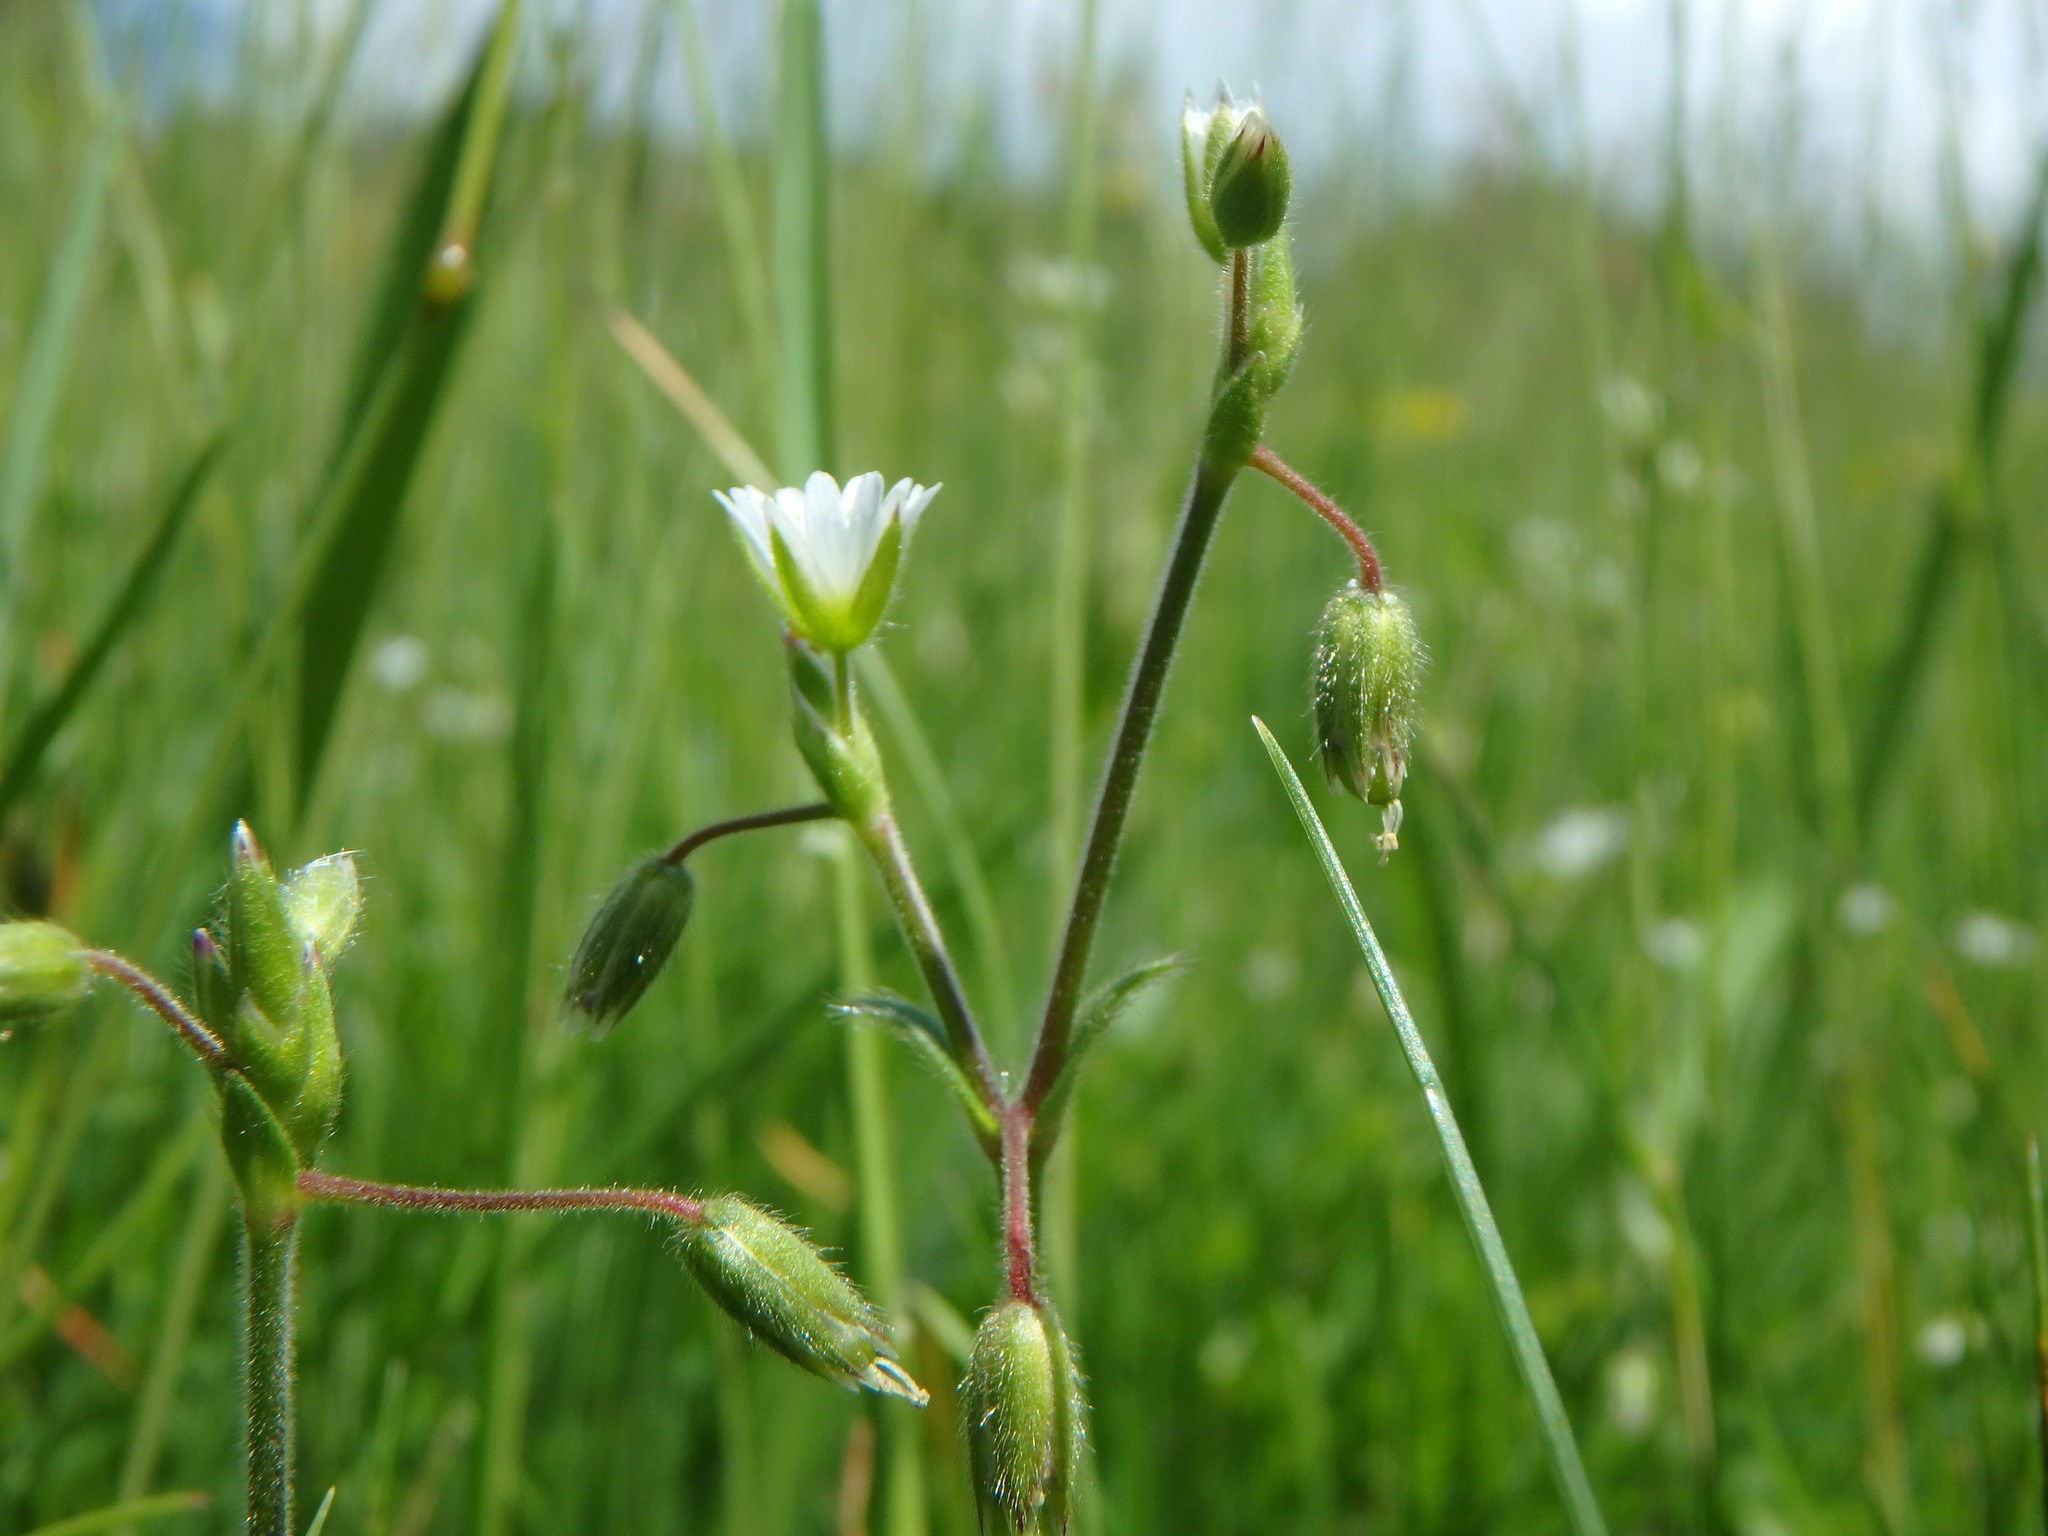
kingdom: Plantae
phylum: Tracheophyta
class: Magnoliopsida
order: Caryophyllales
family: Caryophyllaceae
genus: Cerastium
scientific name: Cerastium fontanum
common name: Common mouse-ear
